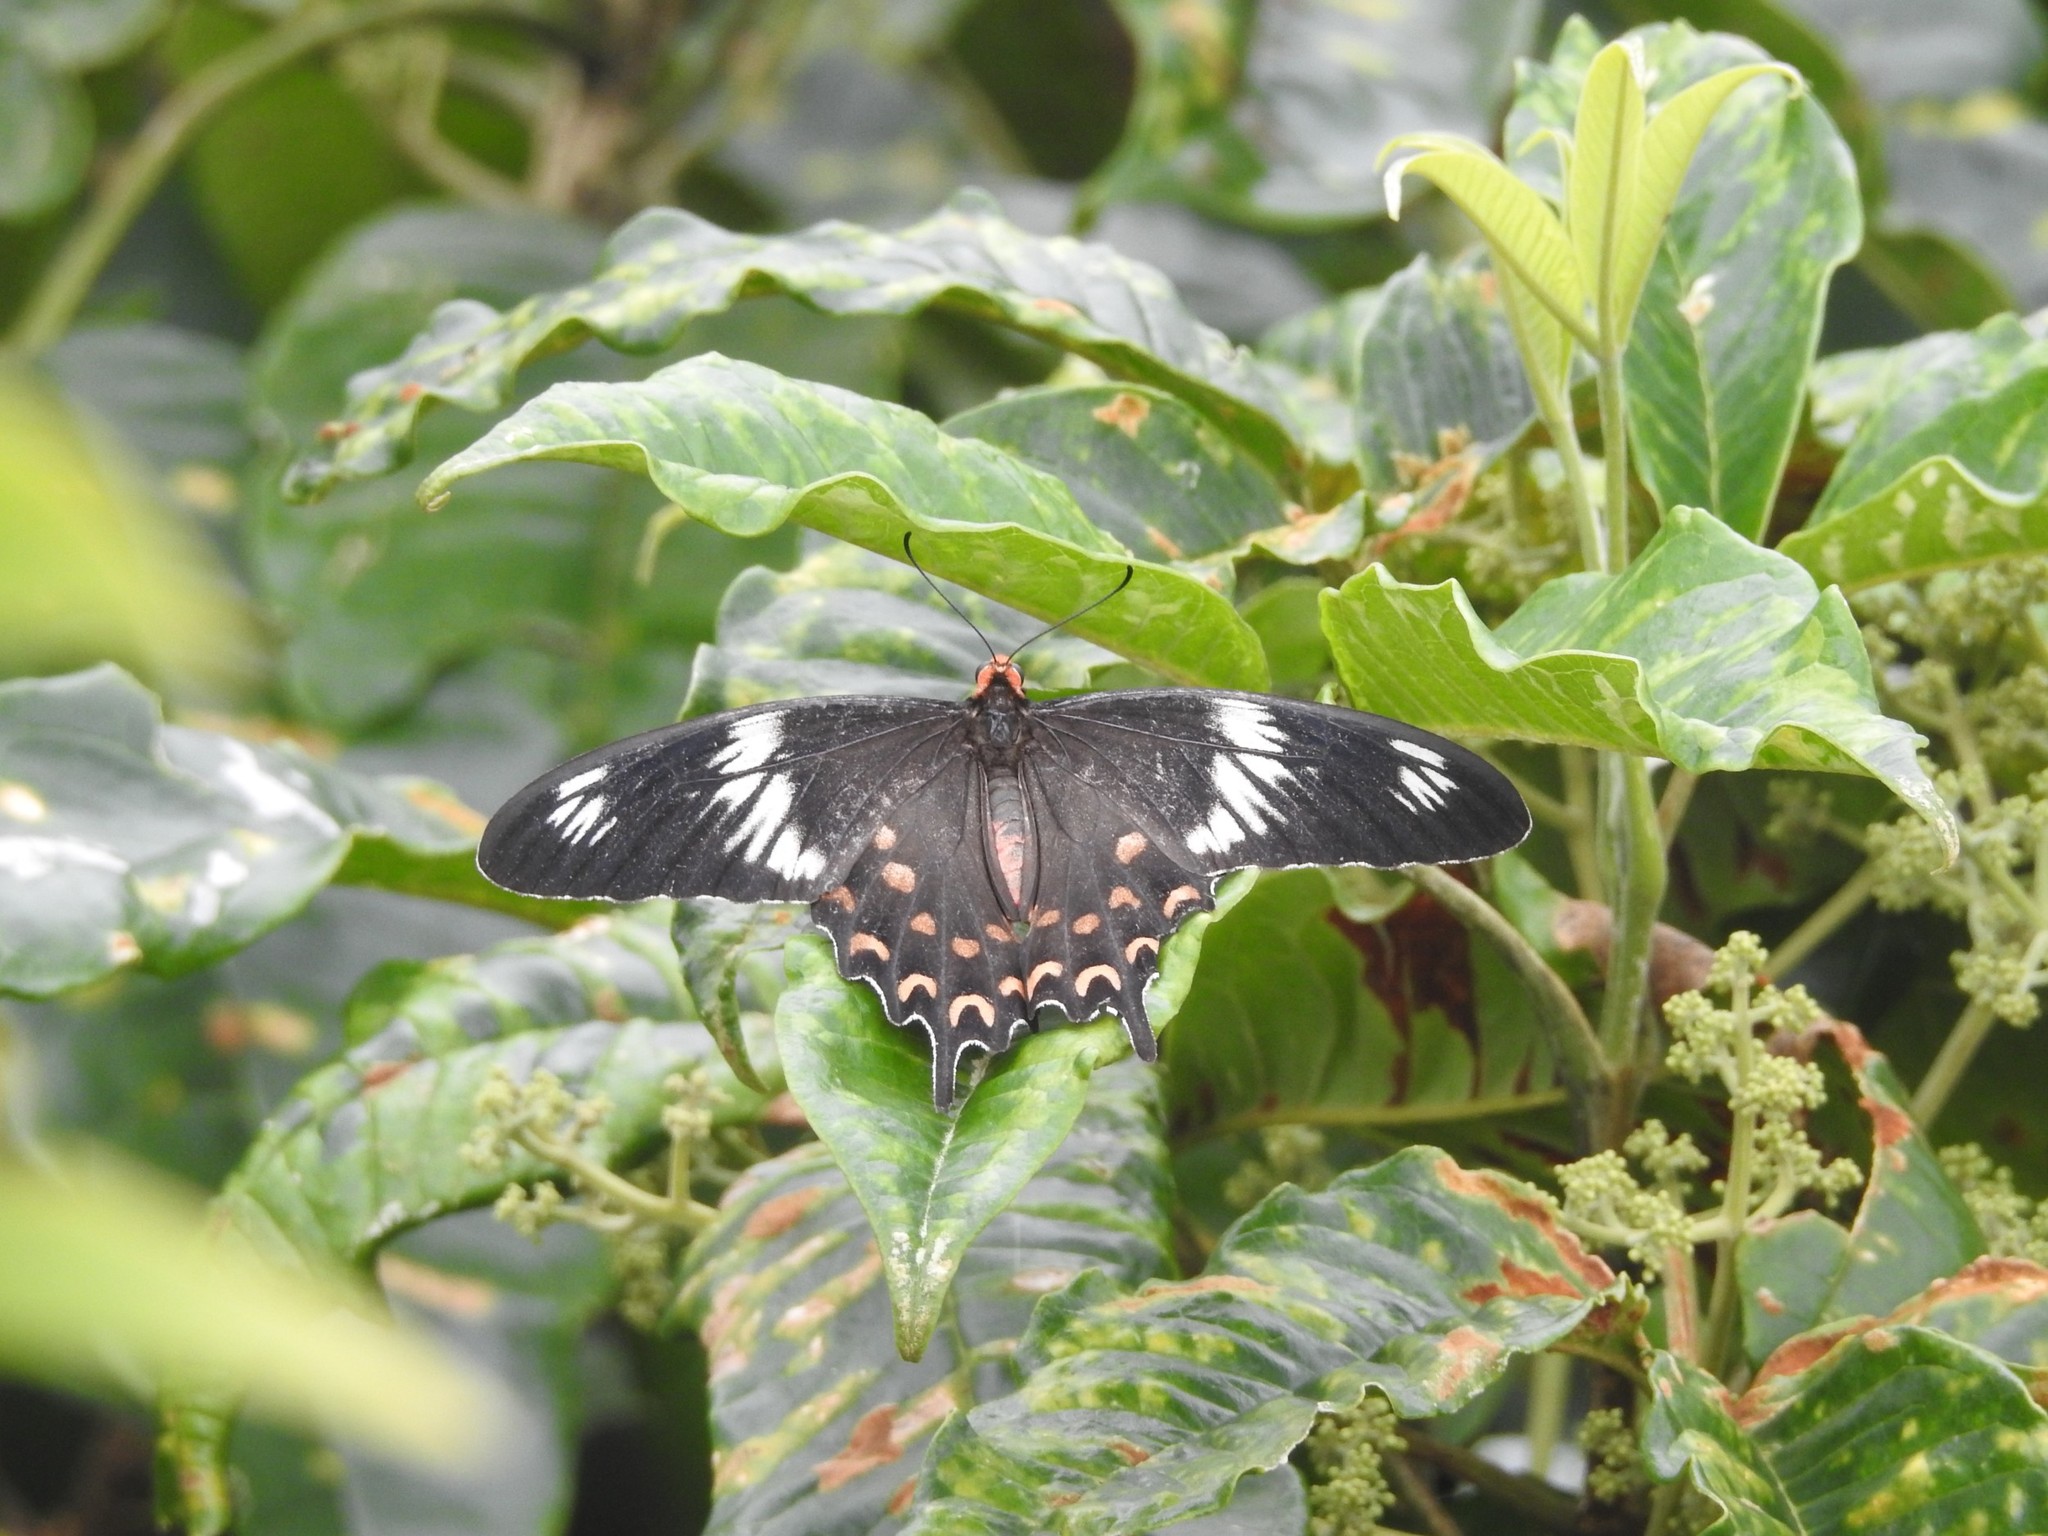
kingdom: Animalia
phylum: Arthropoda
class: Insecta
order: Lepidoptera
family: Papilionidae
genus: Pachliopta
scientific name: Pachliopta hector
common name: Crimson rose
